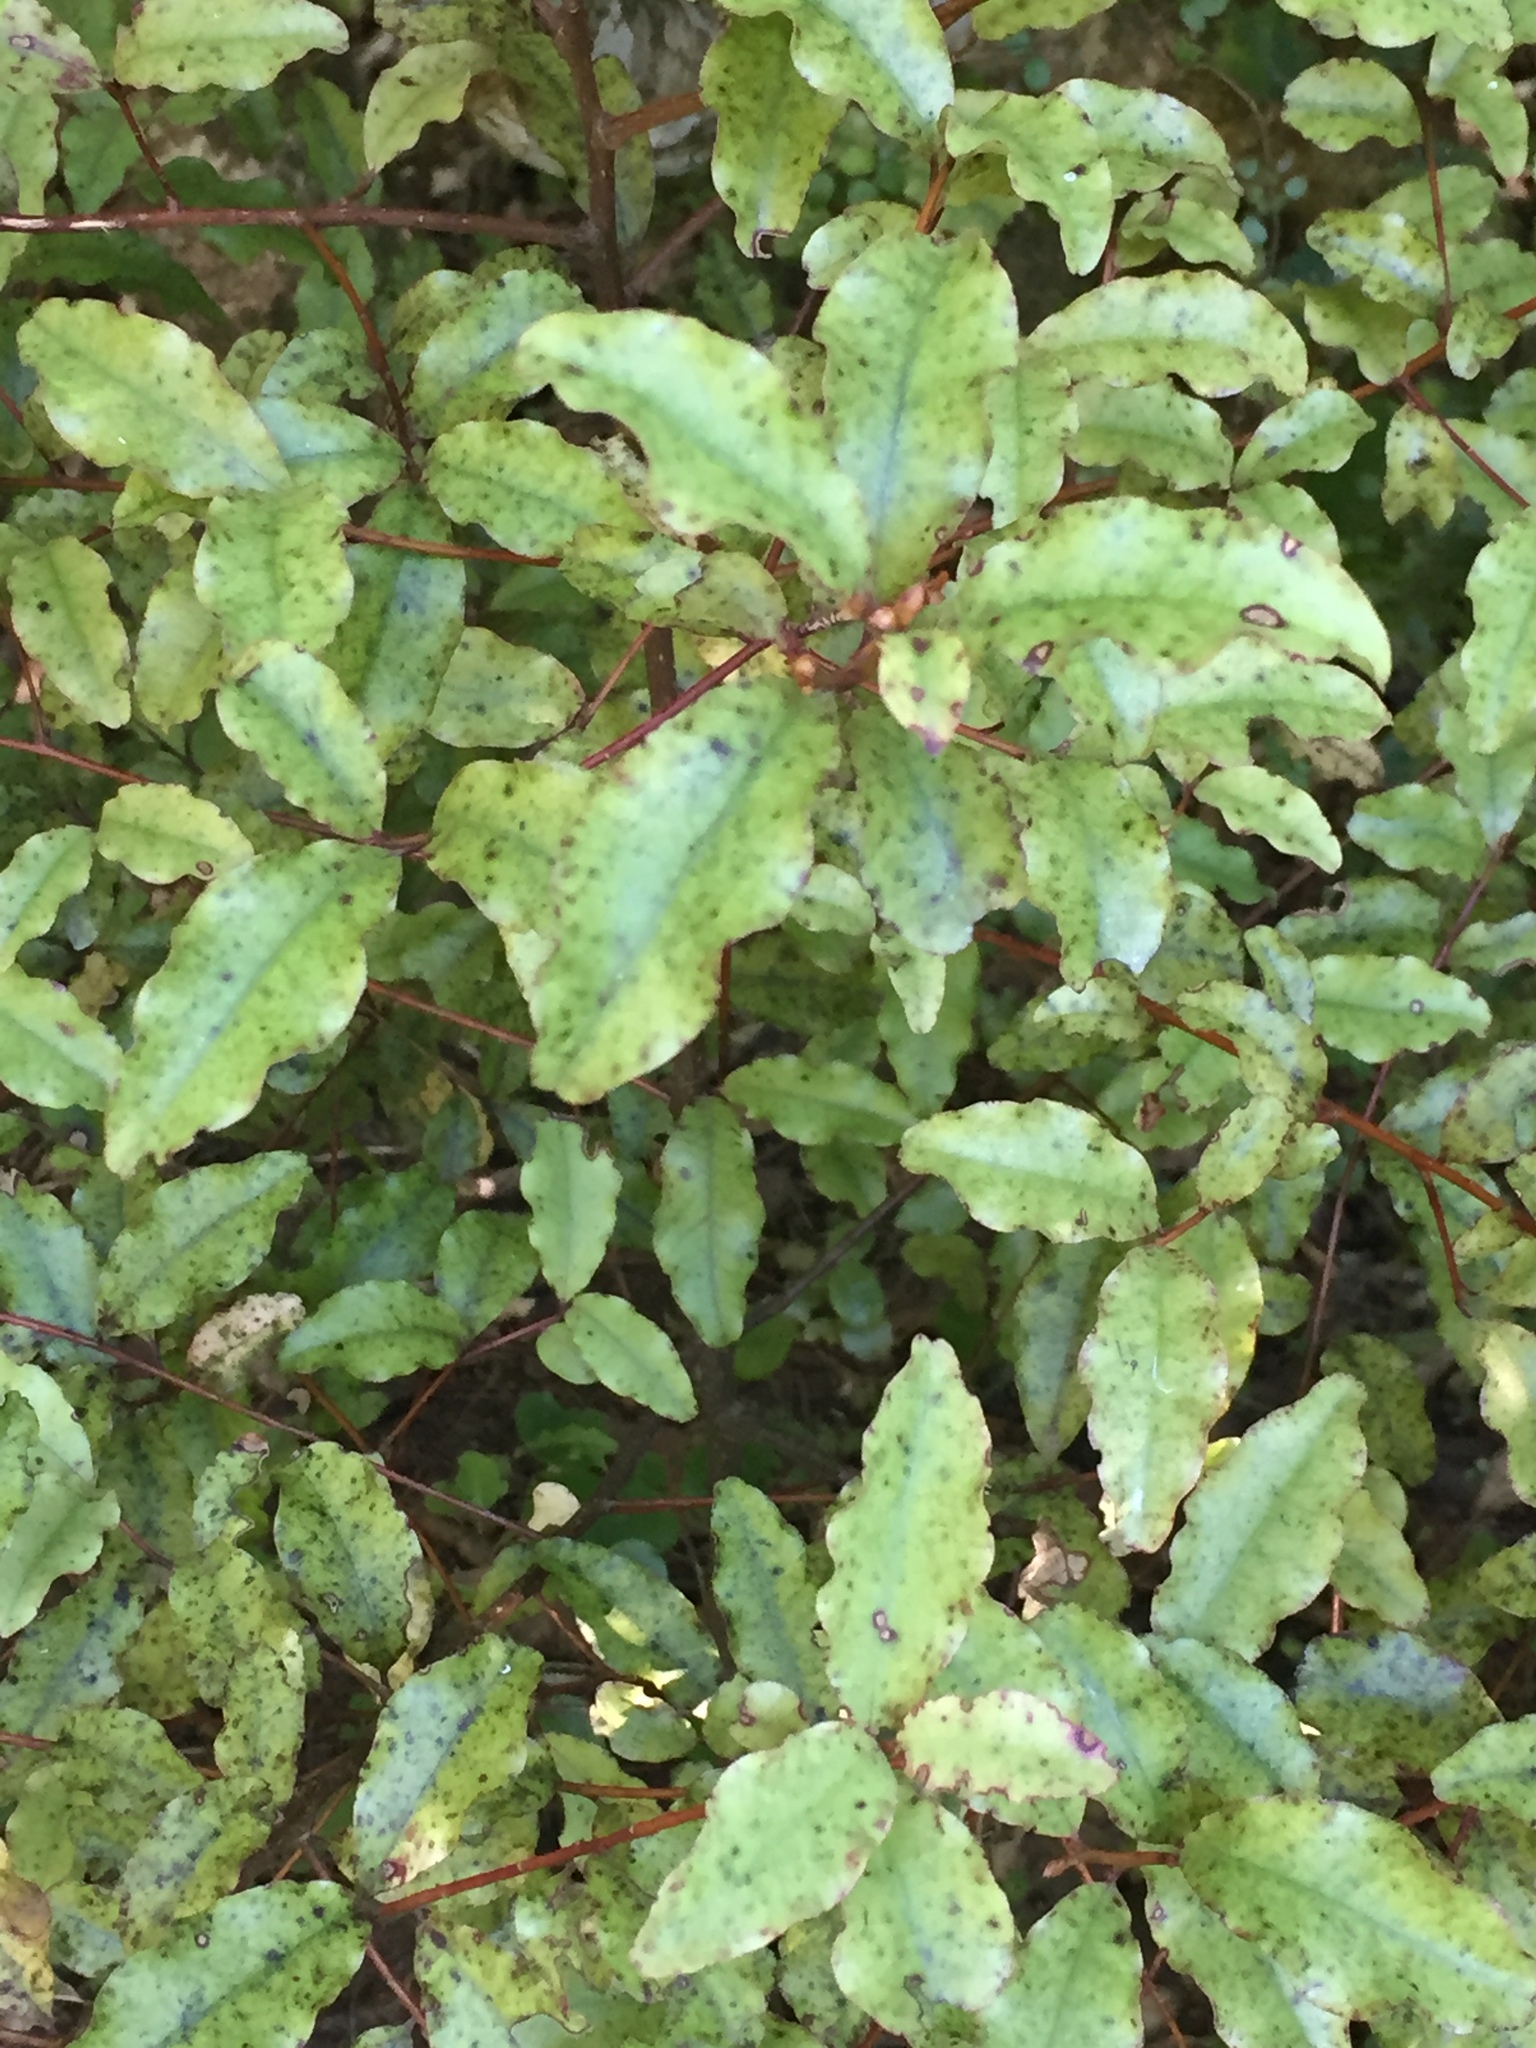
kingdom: Plantae
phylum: Tracheophyta
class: Magnoliopsida
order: Ericales
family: Primulaceae
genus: Myrsine
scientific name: Myrsine australis
